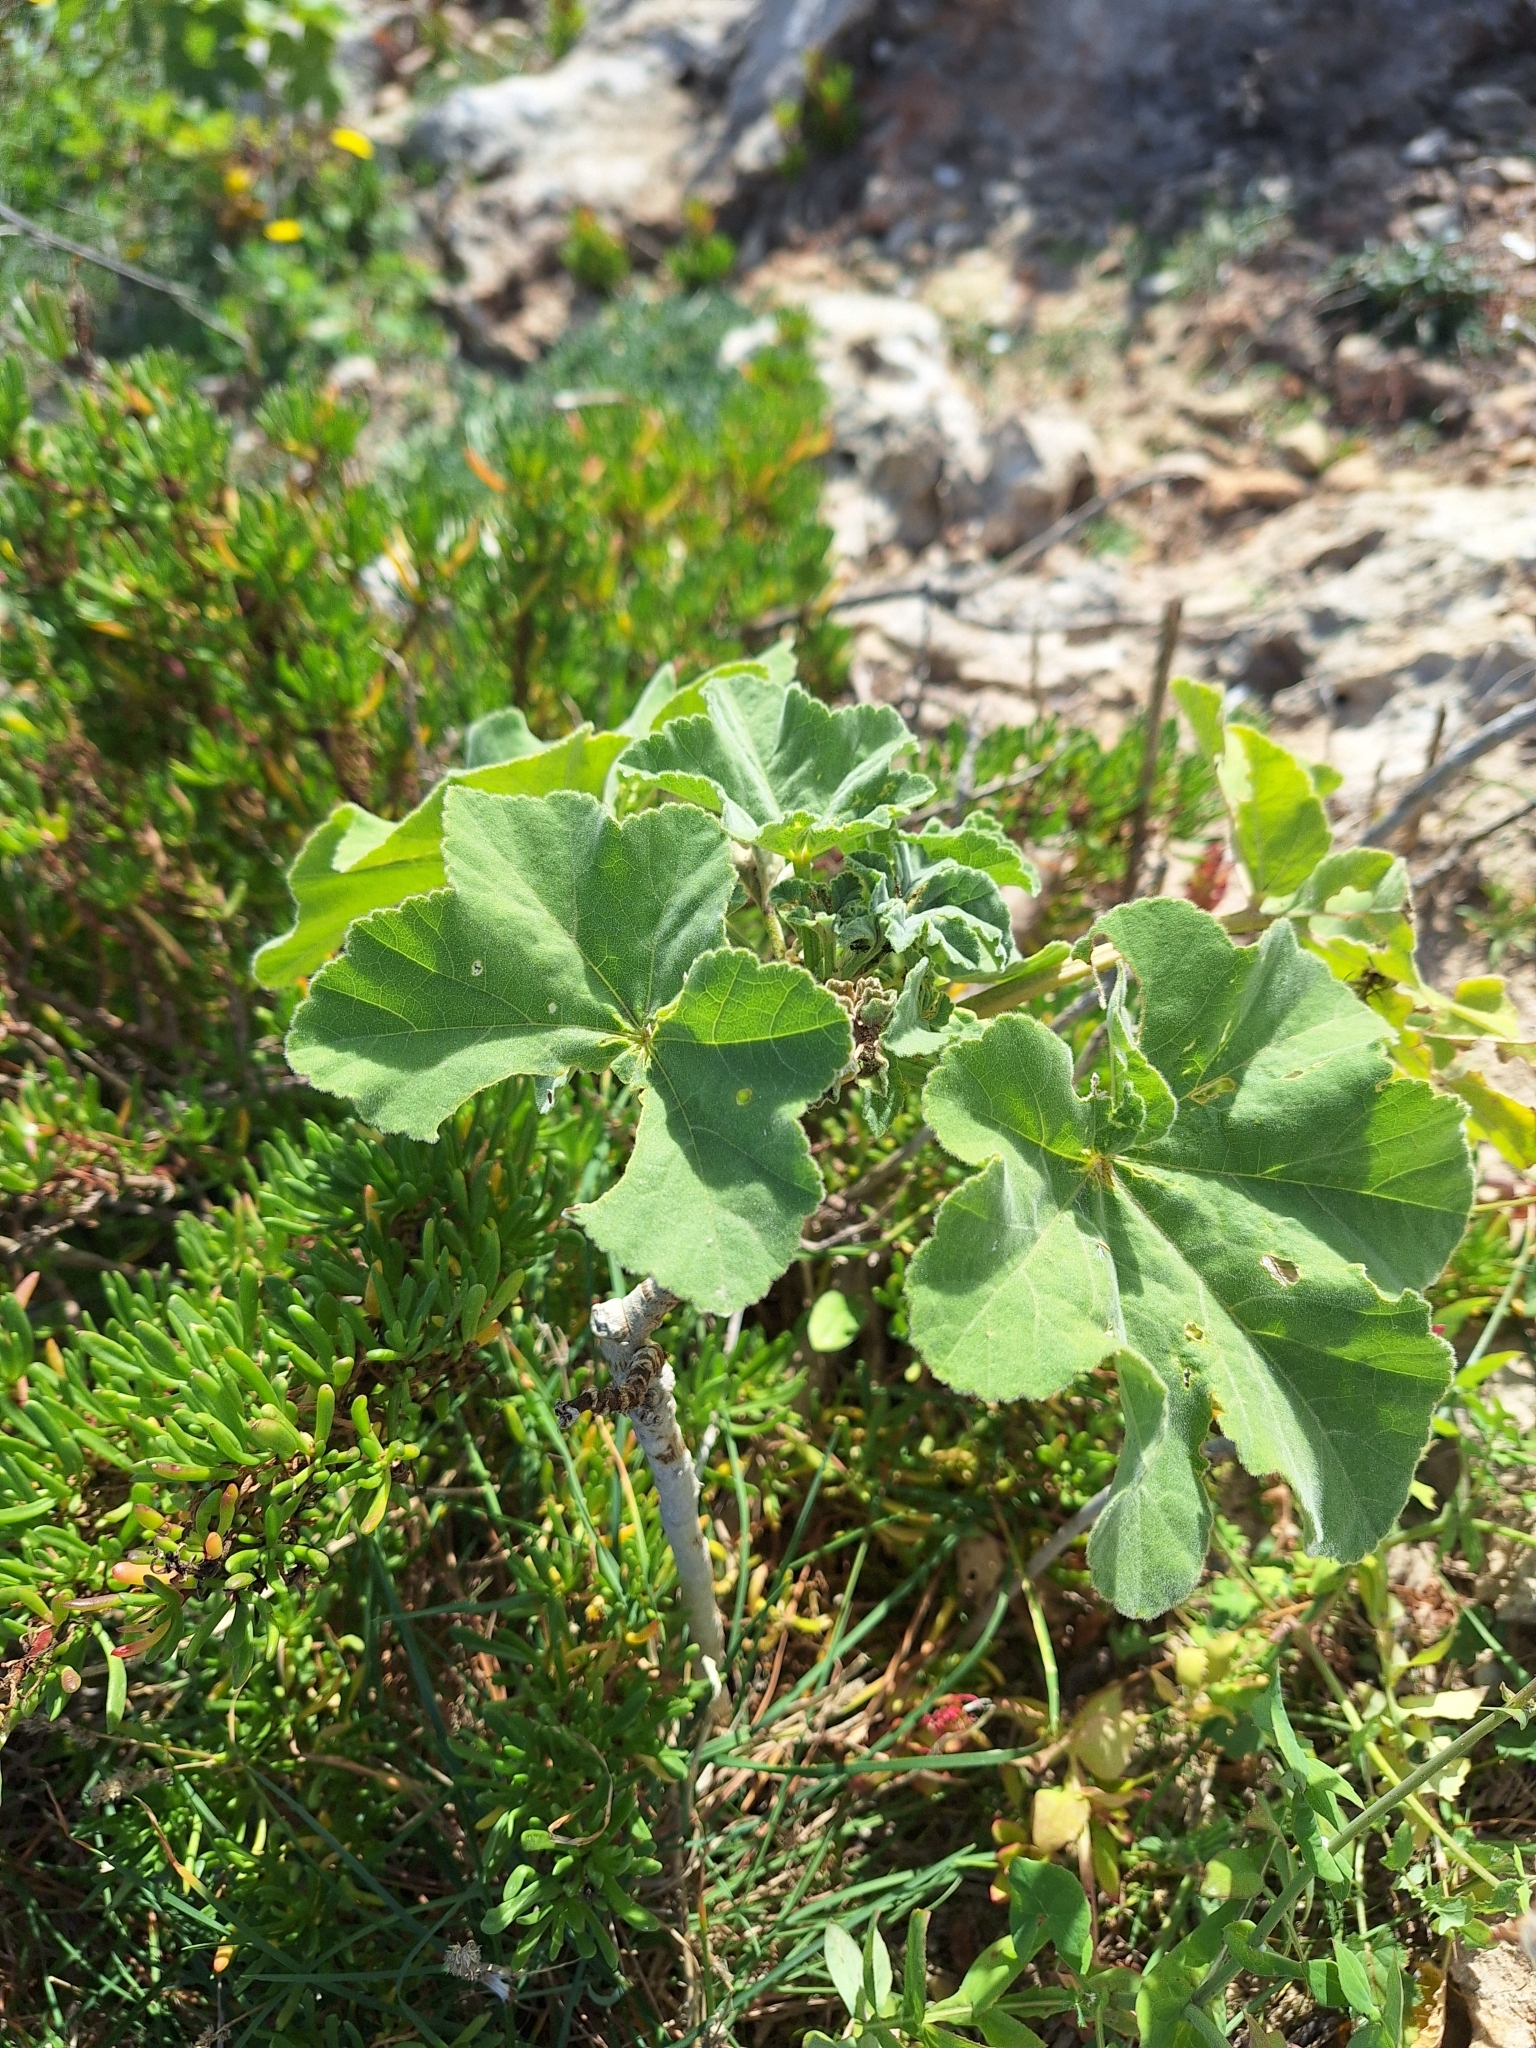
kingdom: Plantae
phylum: Tracheophyta
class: Magnoliopsida
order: Malvales
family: Malvaceae
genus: Malva
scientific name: Malva arborea
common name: Tree mallow
